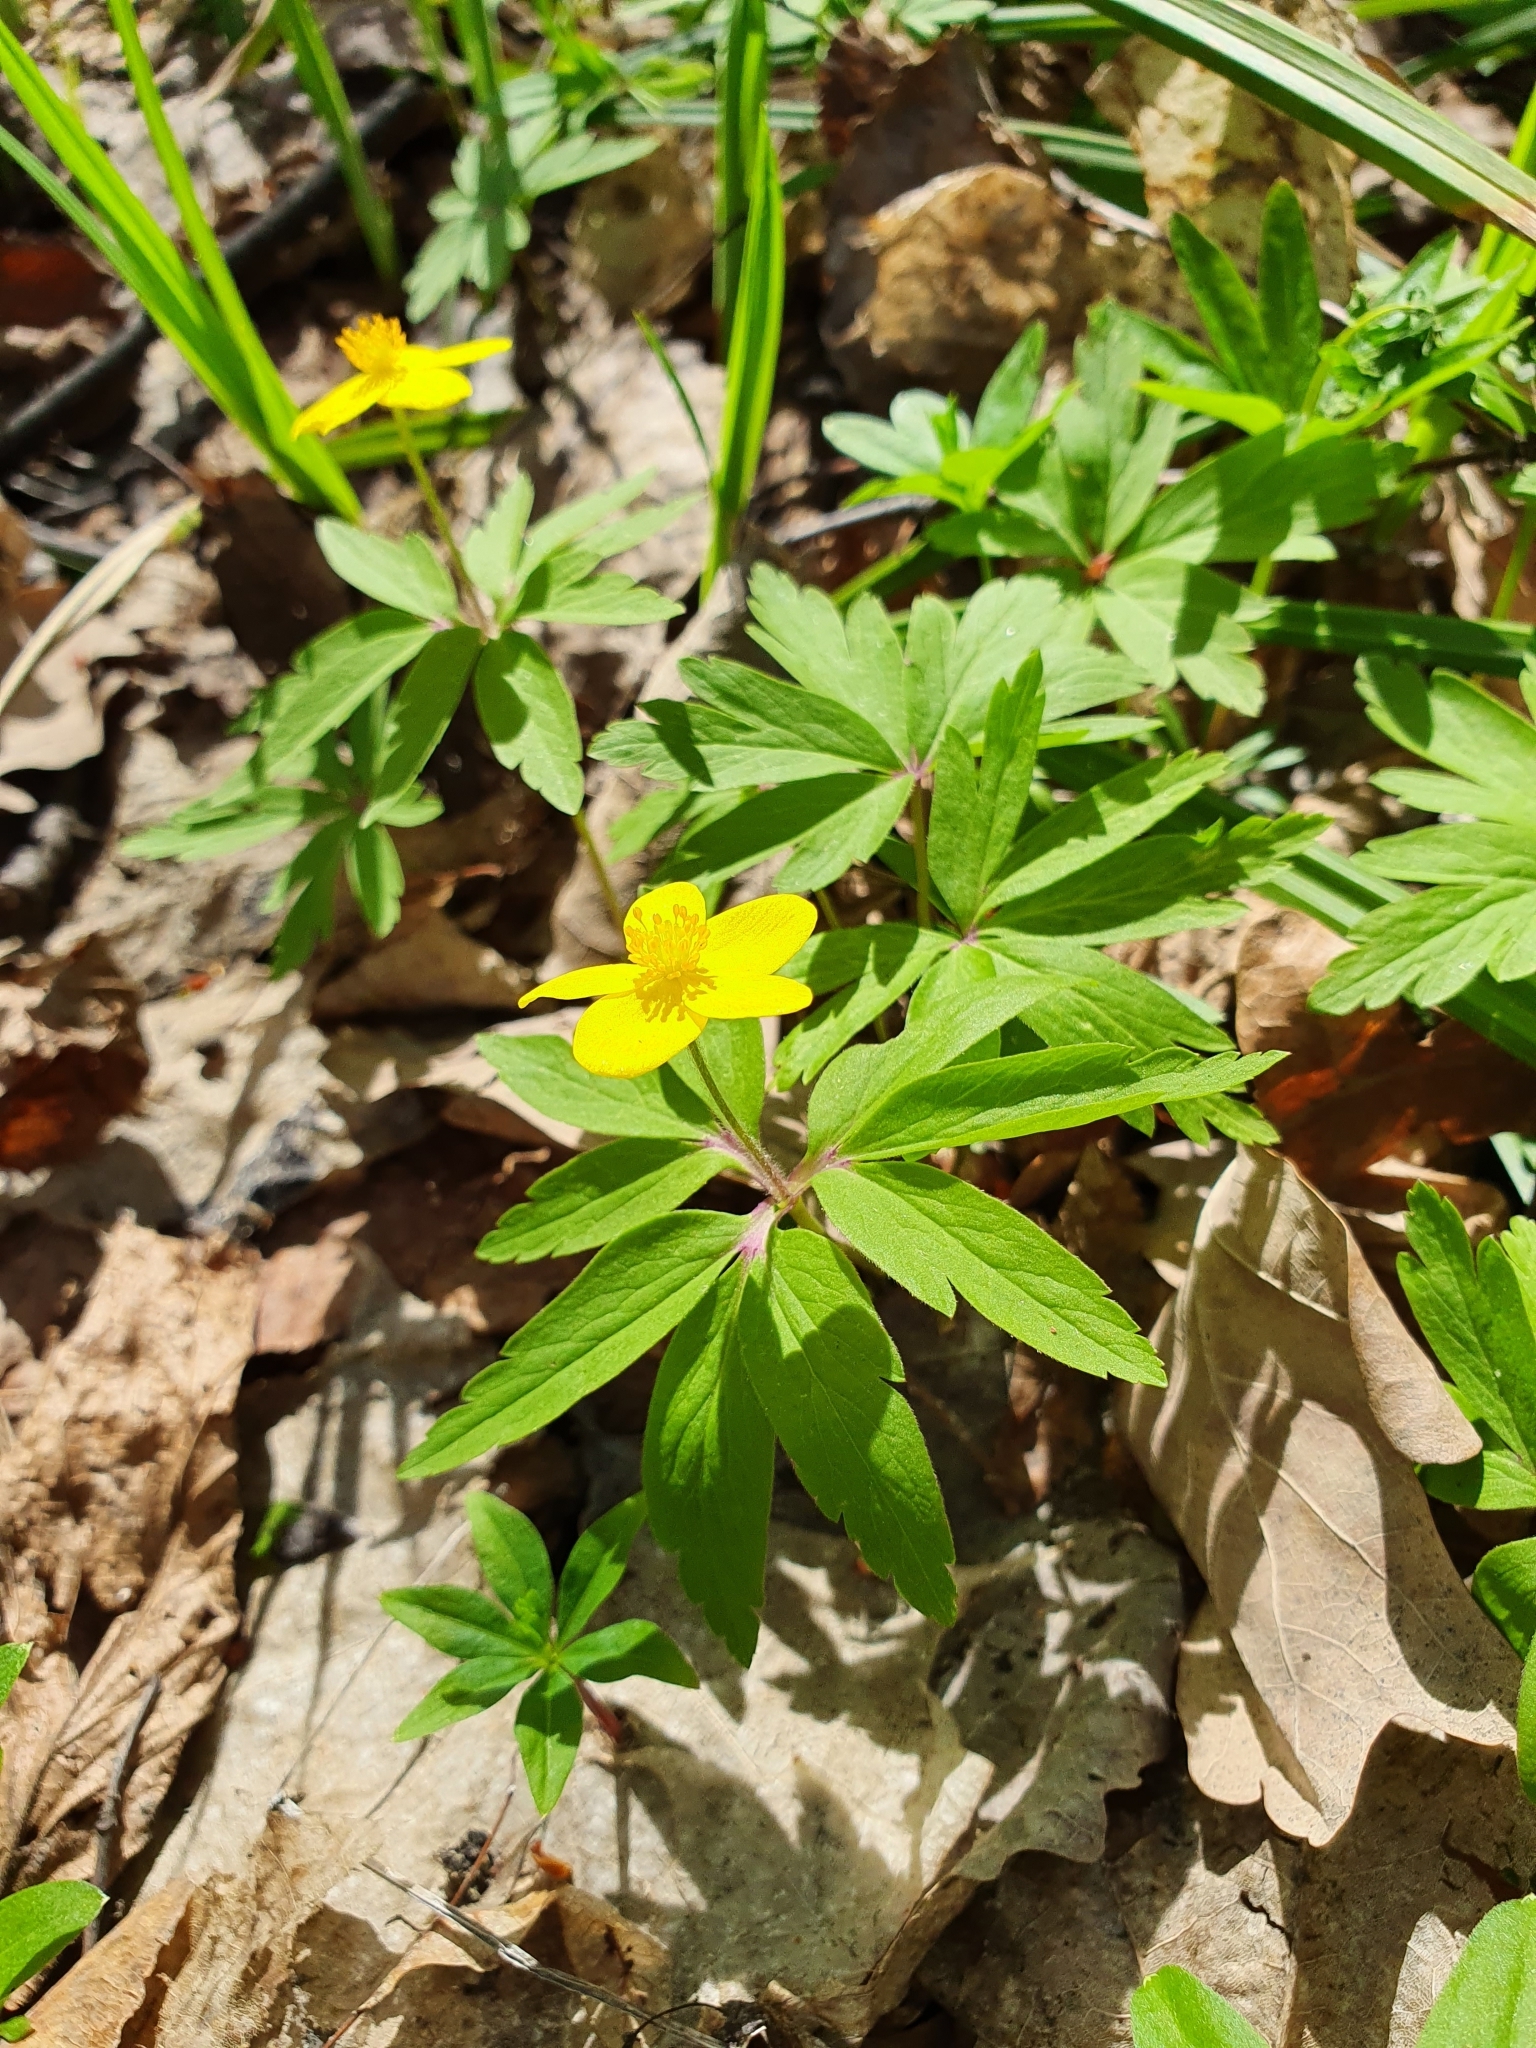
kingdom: Plantae
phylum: Tracheophyta
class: Magnoliopsida
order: Ranunculales
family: Ranunculaceae
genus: Anemone
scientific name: Anemone ranunculoides
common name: Yellow anemone
